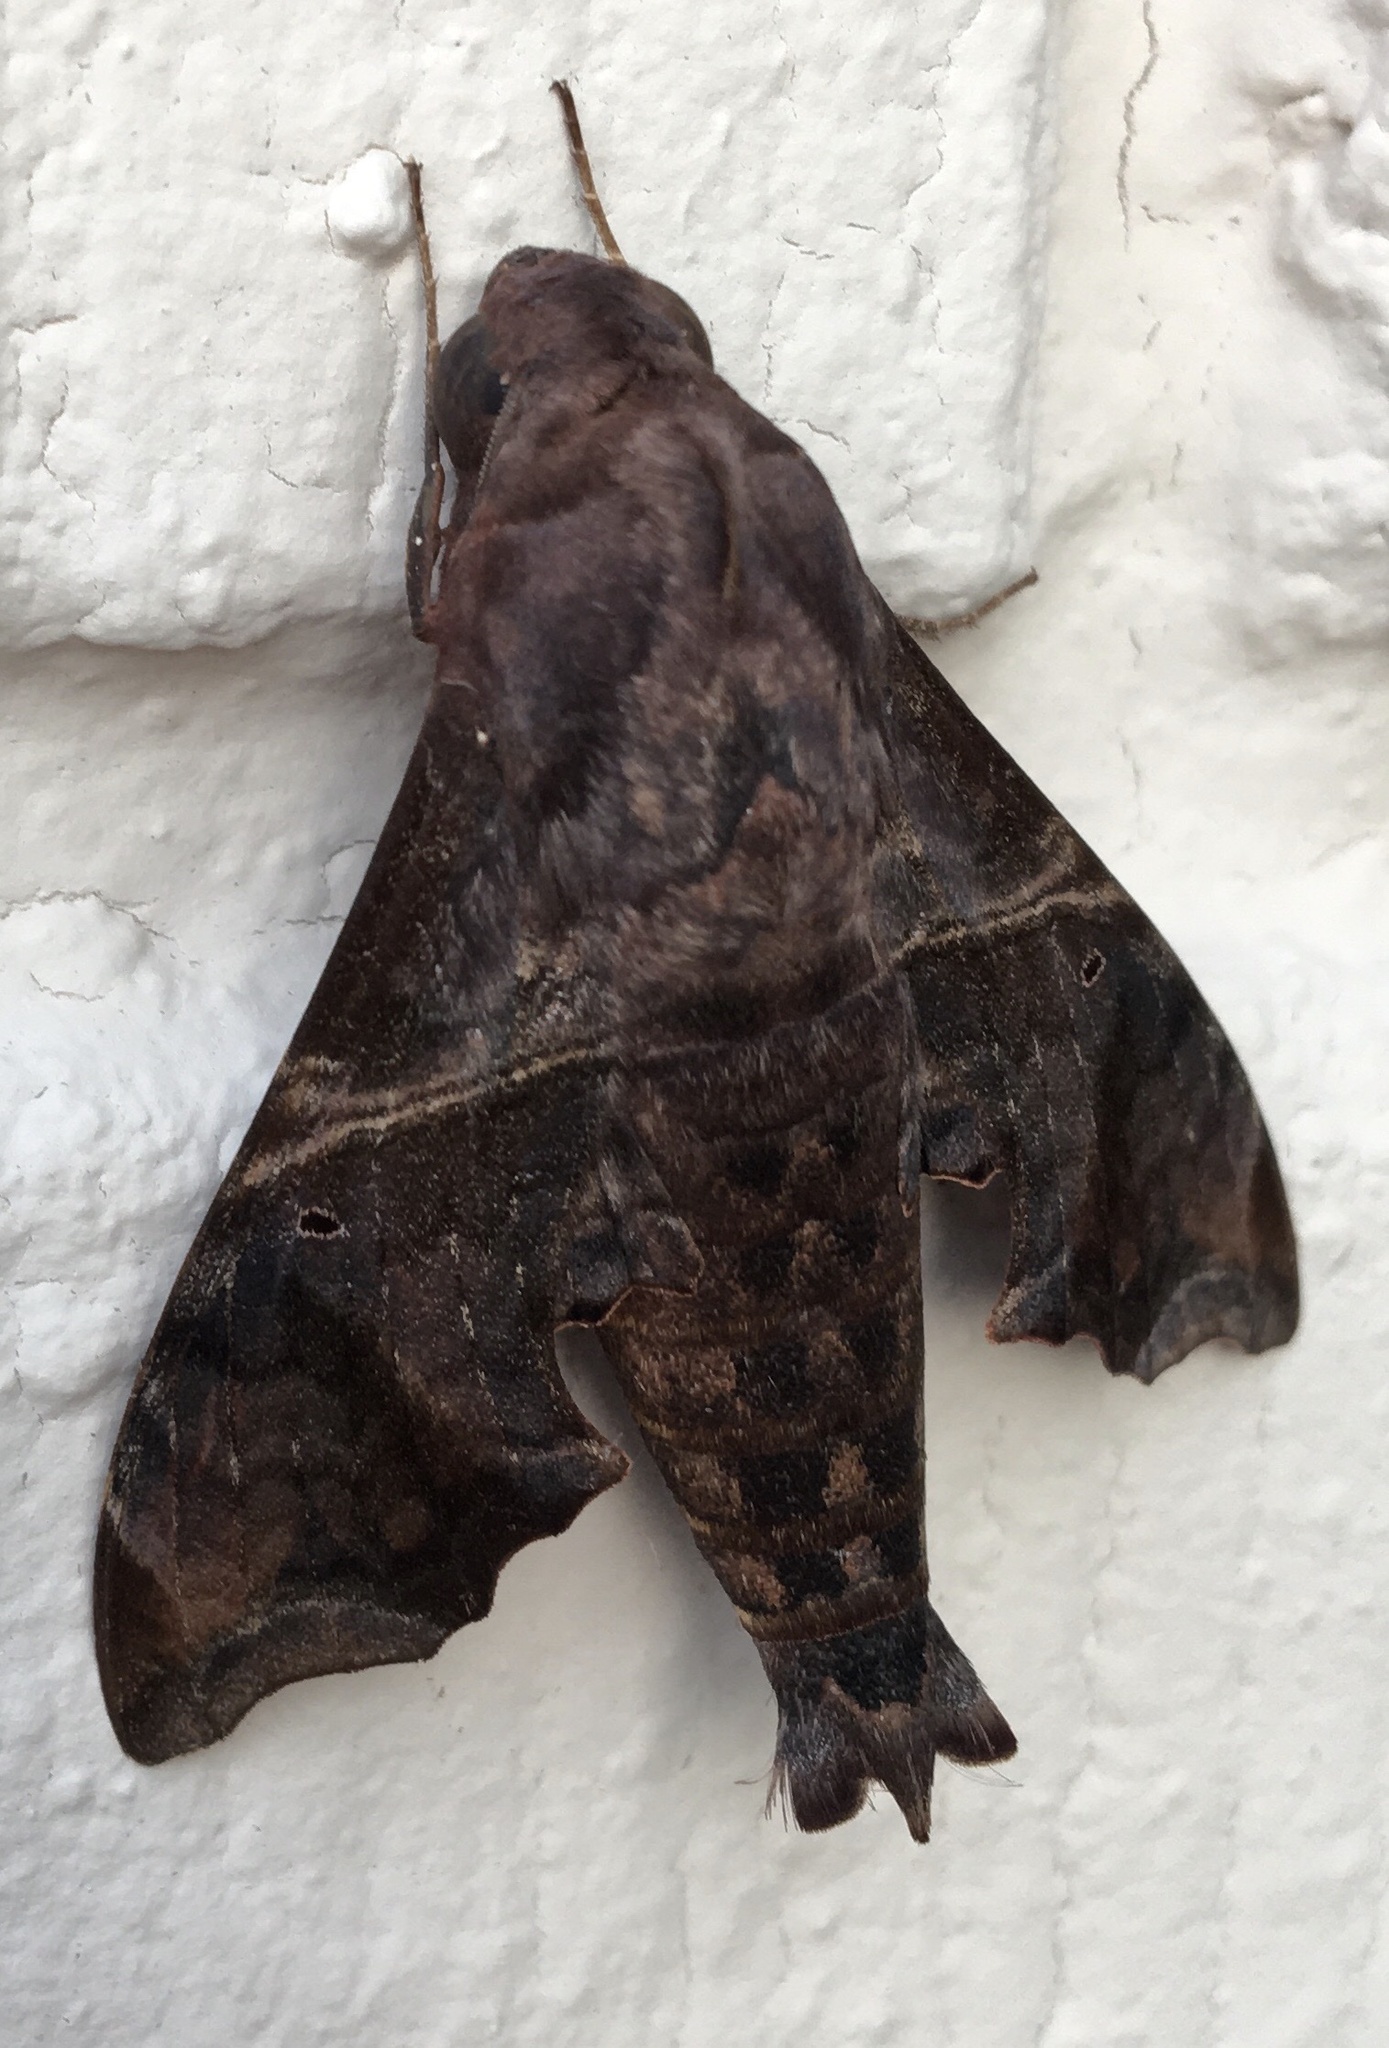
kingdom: Animalia
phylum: Arthropoda
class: Insecta
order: Lepidoptera
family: Sphingidae
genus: Enyo
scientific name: Enyo lugubris
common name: Mournful sphinx
